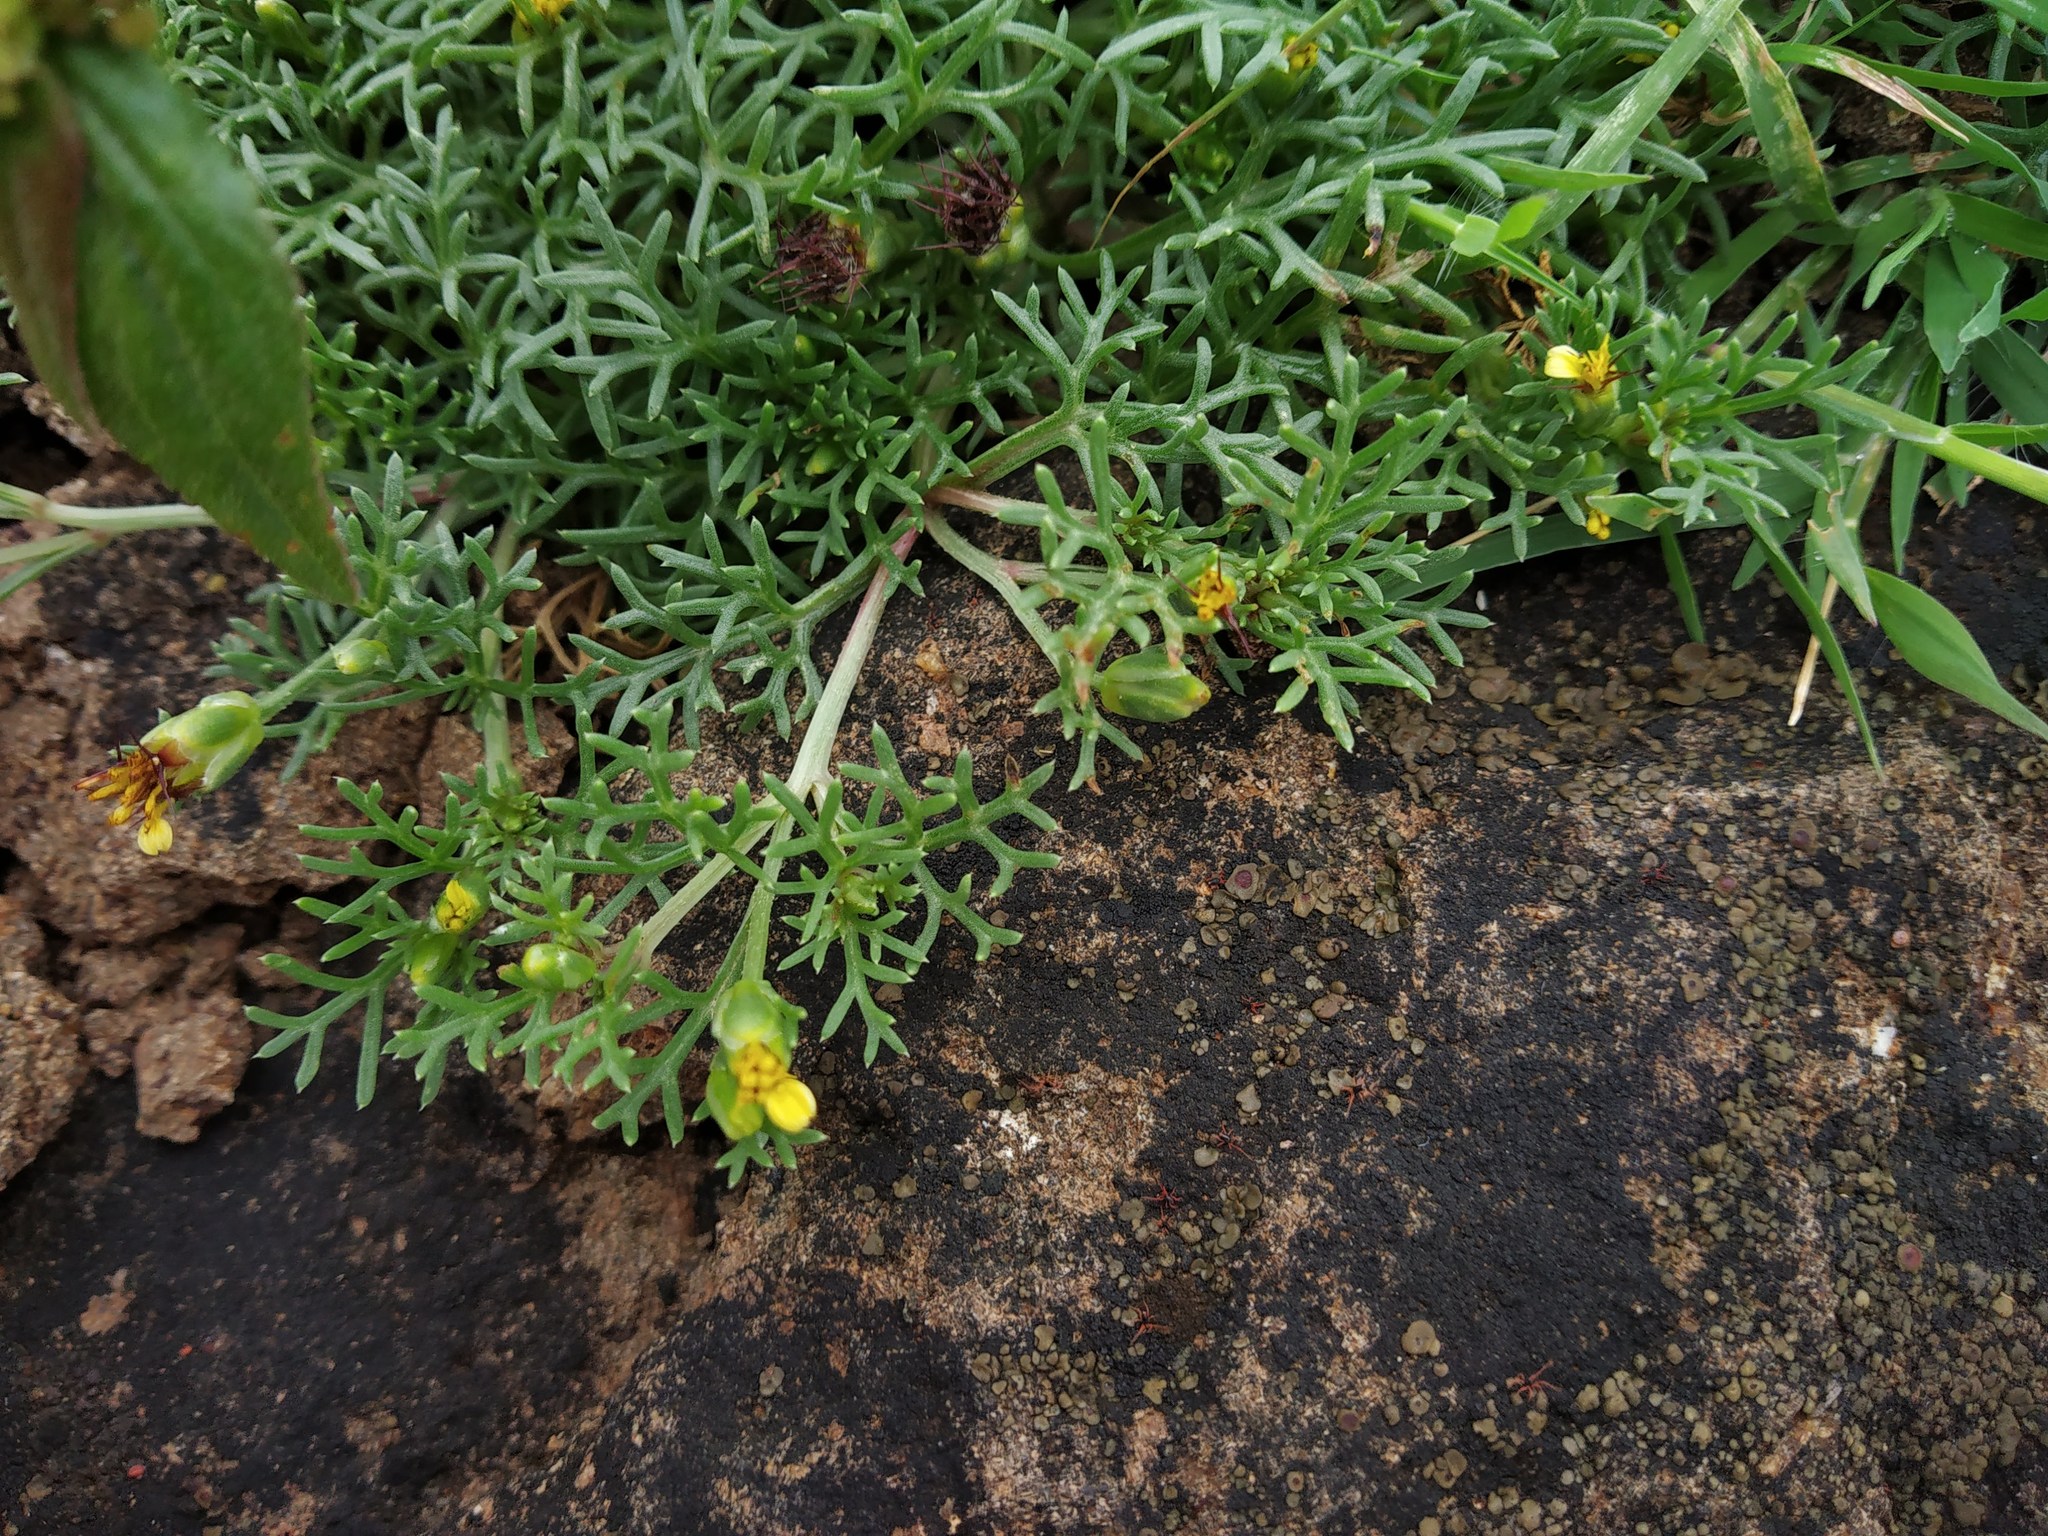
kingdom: Plantae
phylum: Tracheophyta
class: Magnoliopsida
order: Asterales
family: Asteraceae
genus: Glossocardia
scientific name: Glossocardia bosvallia
